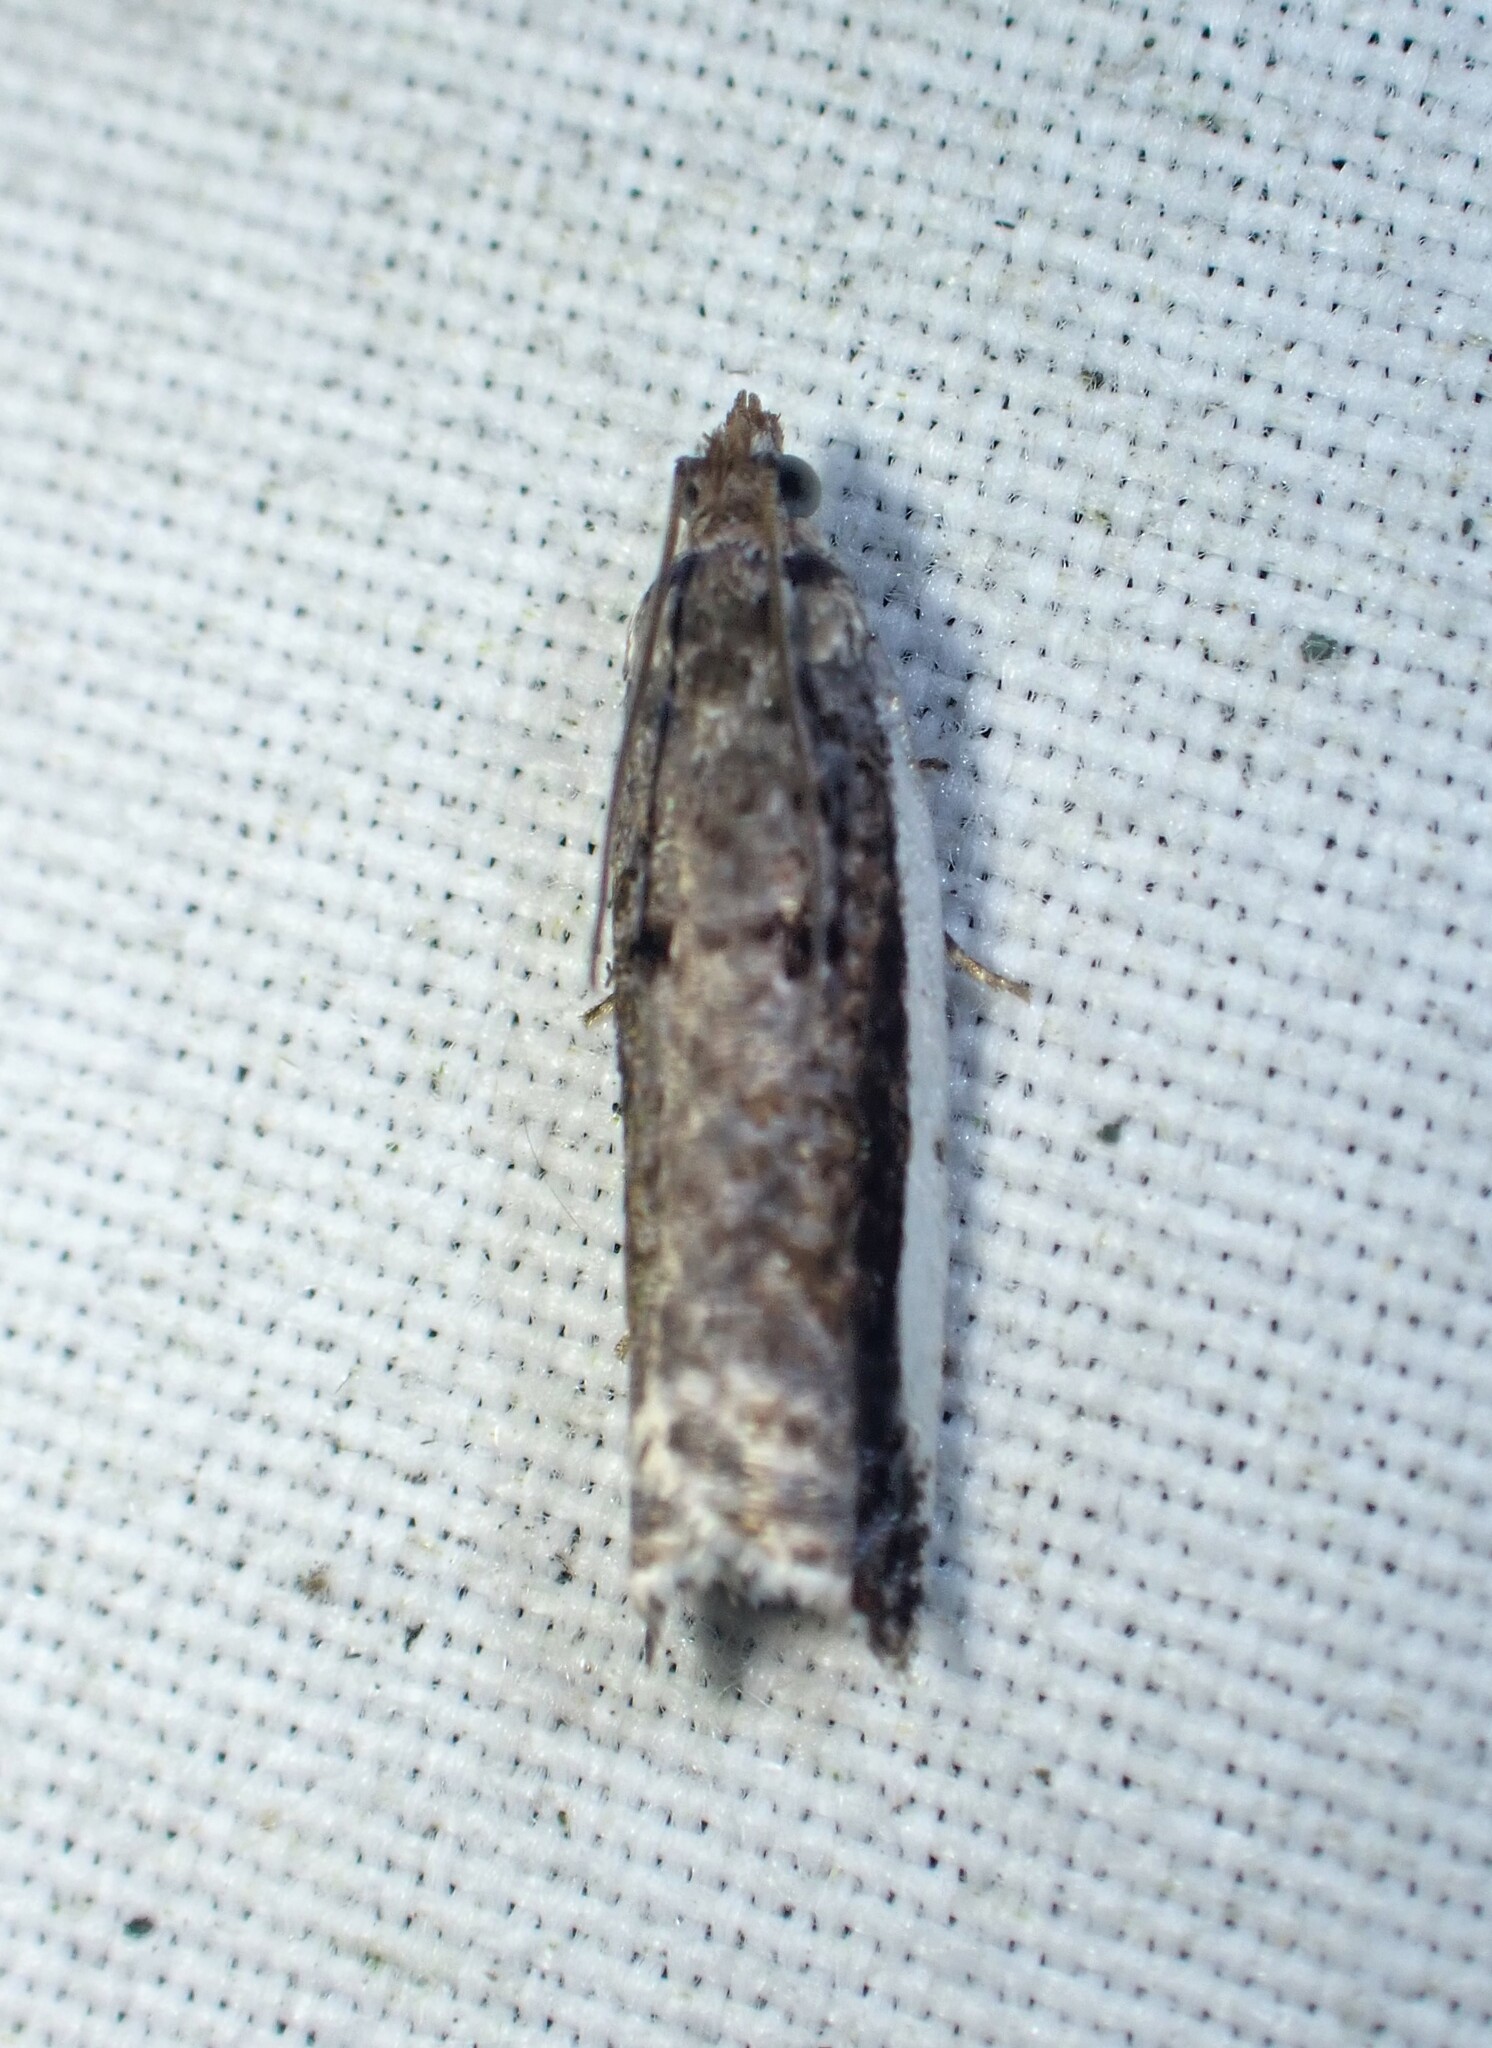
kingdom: Animalia
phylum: Arthropoda
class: Insecta
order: Lepidoptera
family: Tortricidae
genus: Ancylis
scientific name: Ancylis albacostana
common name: White-edged ancylis moth
